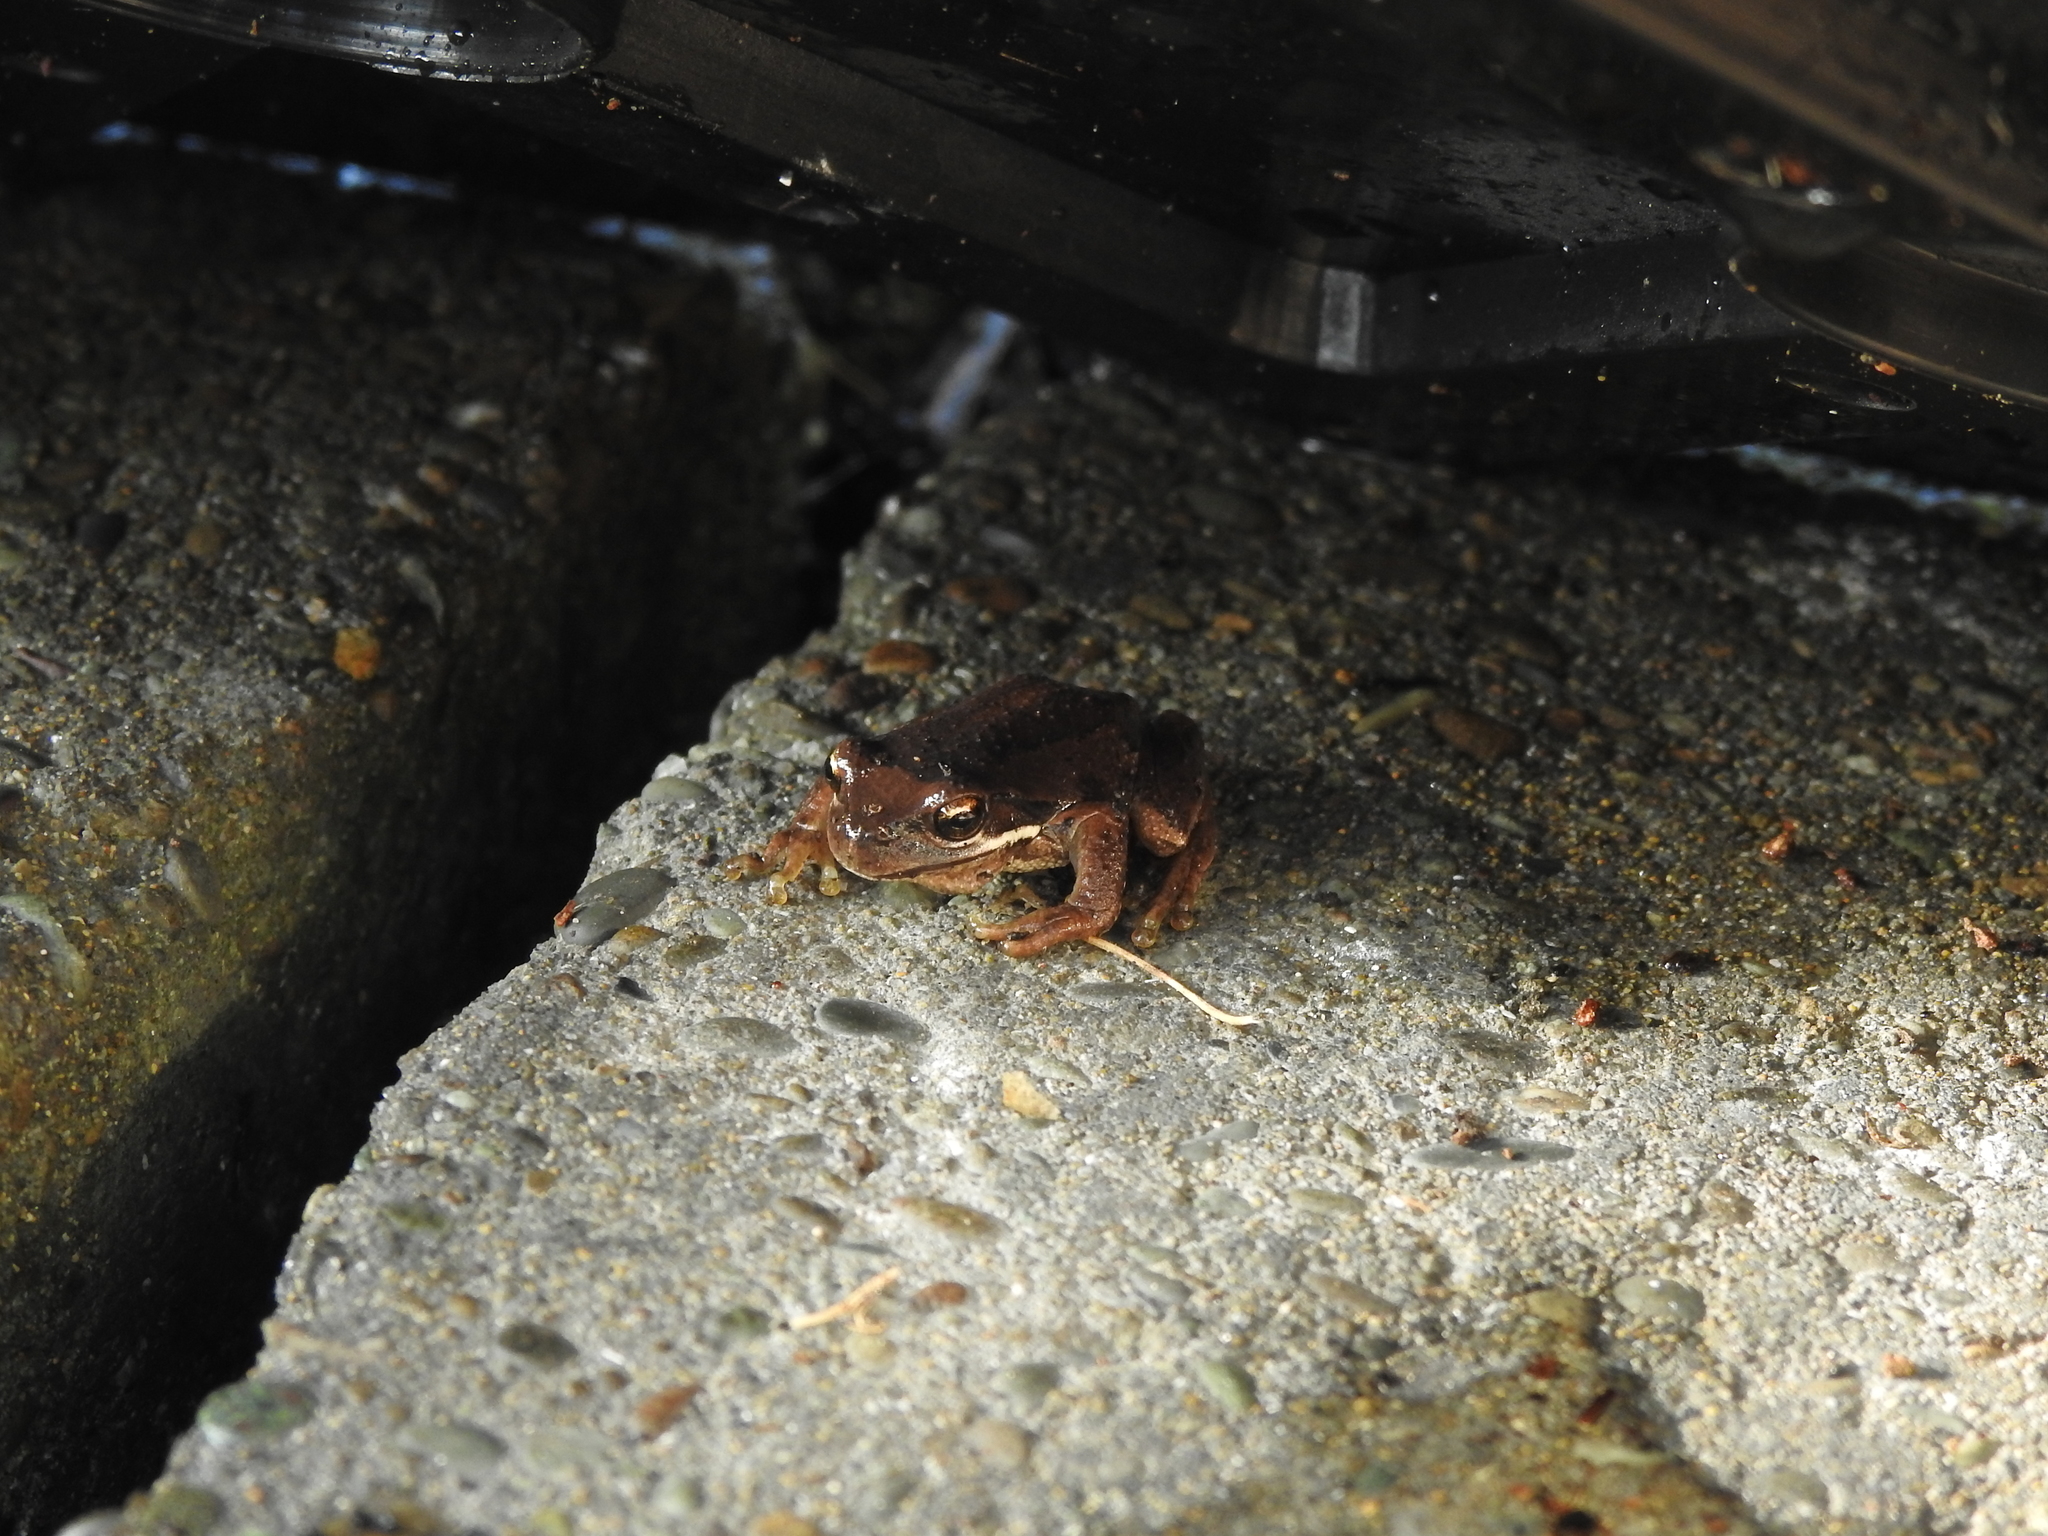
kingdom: Animalia
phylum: Chordata
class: Amphibia
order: Anura
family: Pelodryadidae
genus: Litoria
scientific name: Litoria ewingii
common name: Southern brown tree frog
